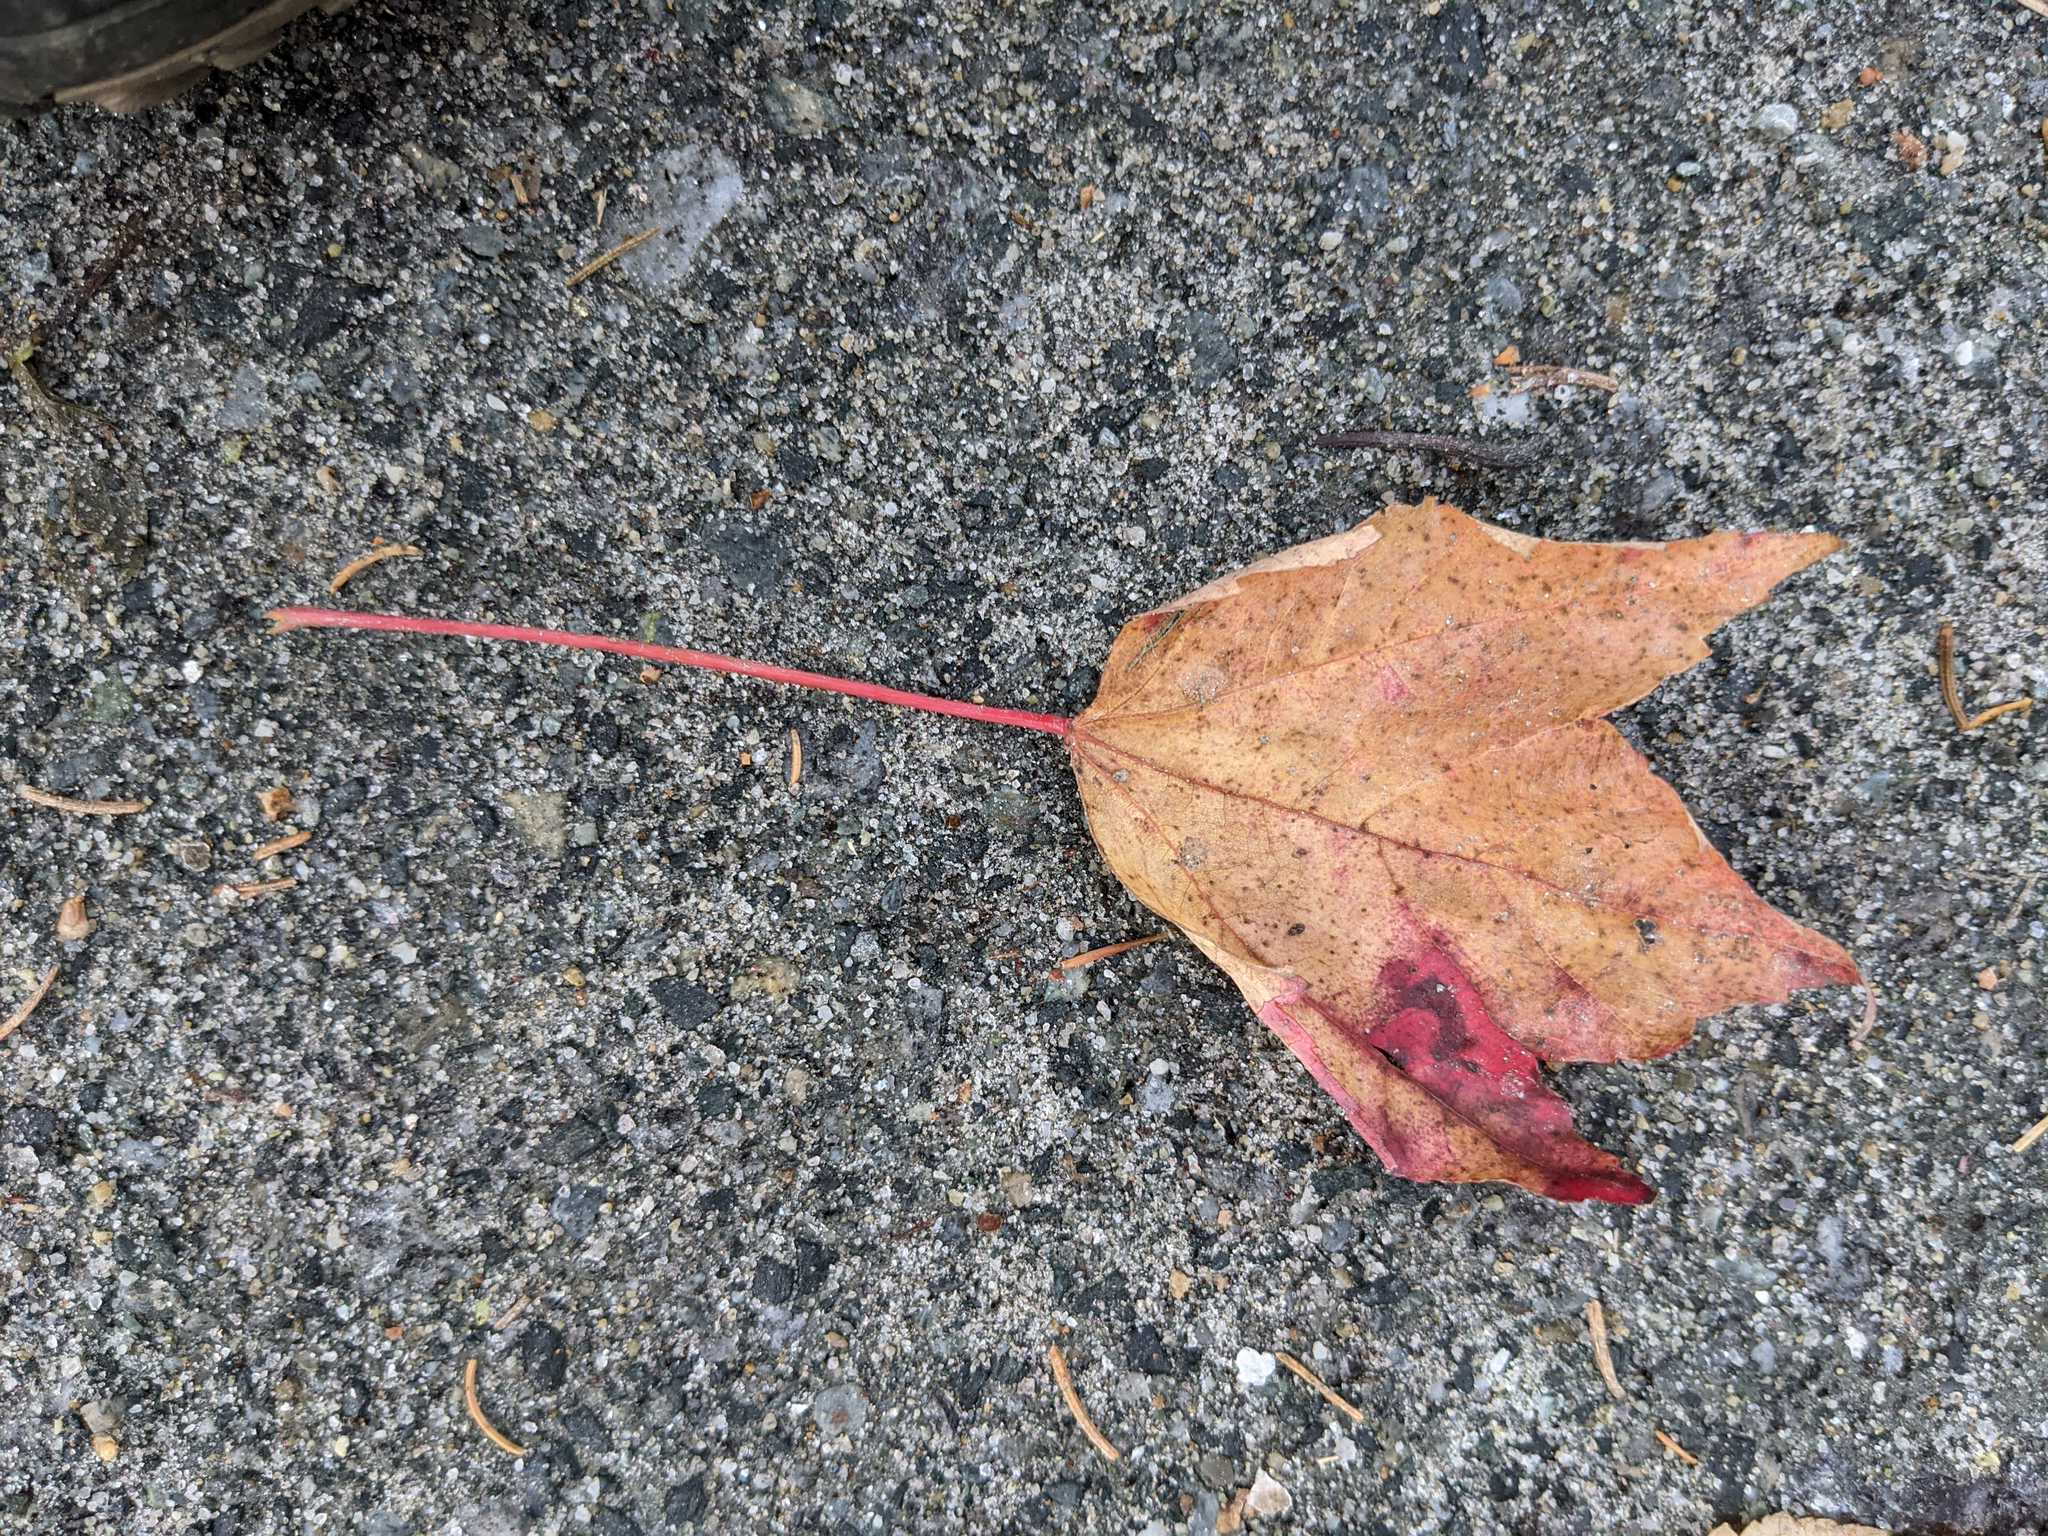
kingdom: Plantae
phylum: Tracheophyta
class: Magnoliopsida
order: Sapindales
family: Sapindaceae
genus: Acer
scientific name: Acer rubrum
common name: Red maple
